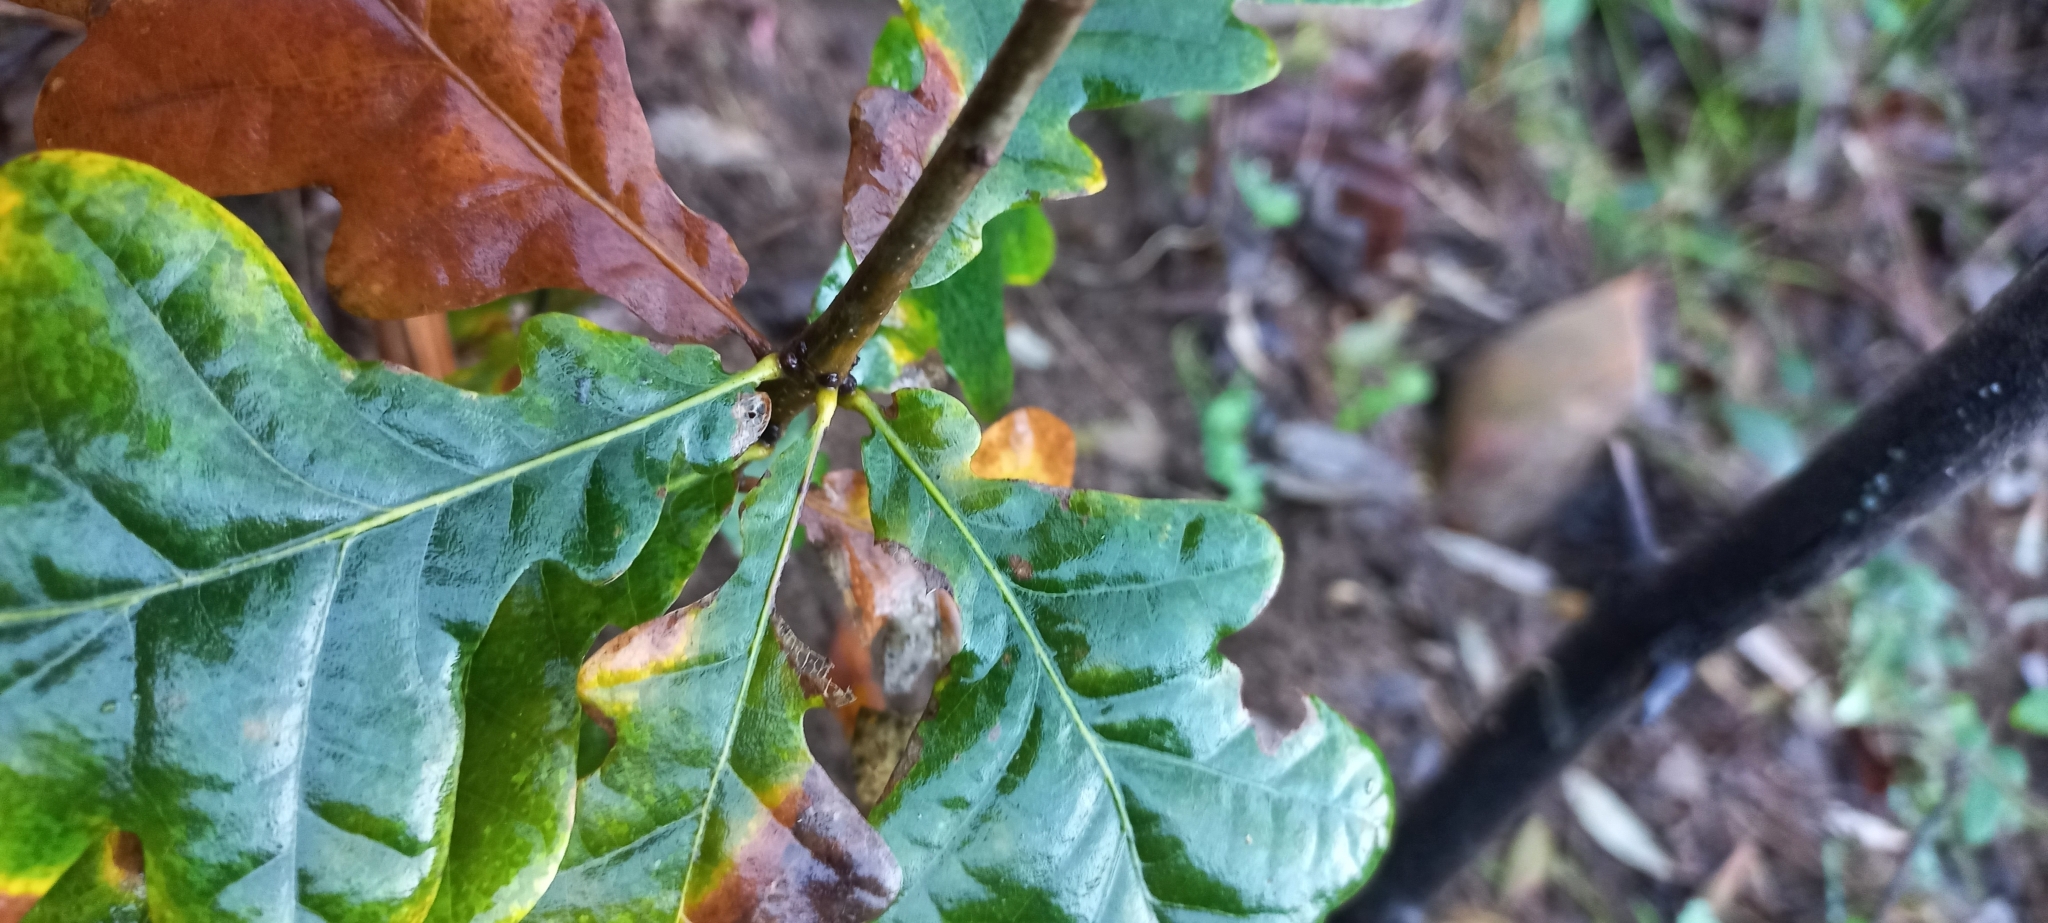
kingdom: Plantae
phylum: Tracheophyta
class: Magnoliopsida
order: Fagales
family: Fagaceae
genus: Quercus
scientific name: Quercus orocantabrica
